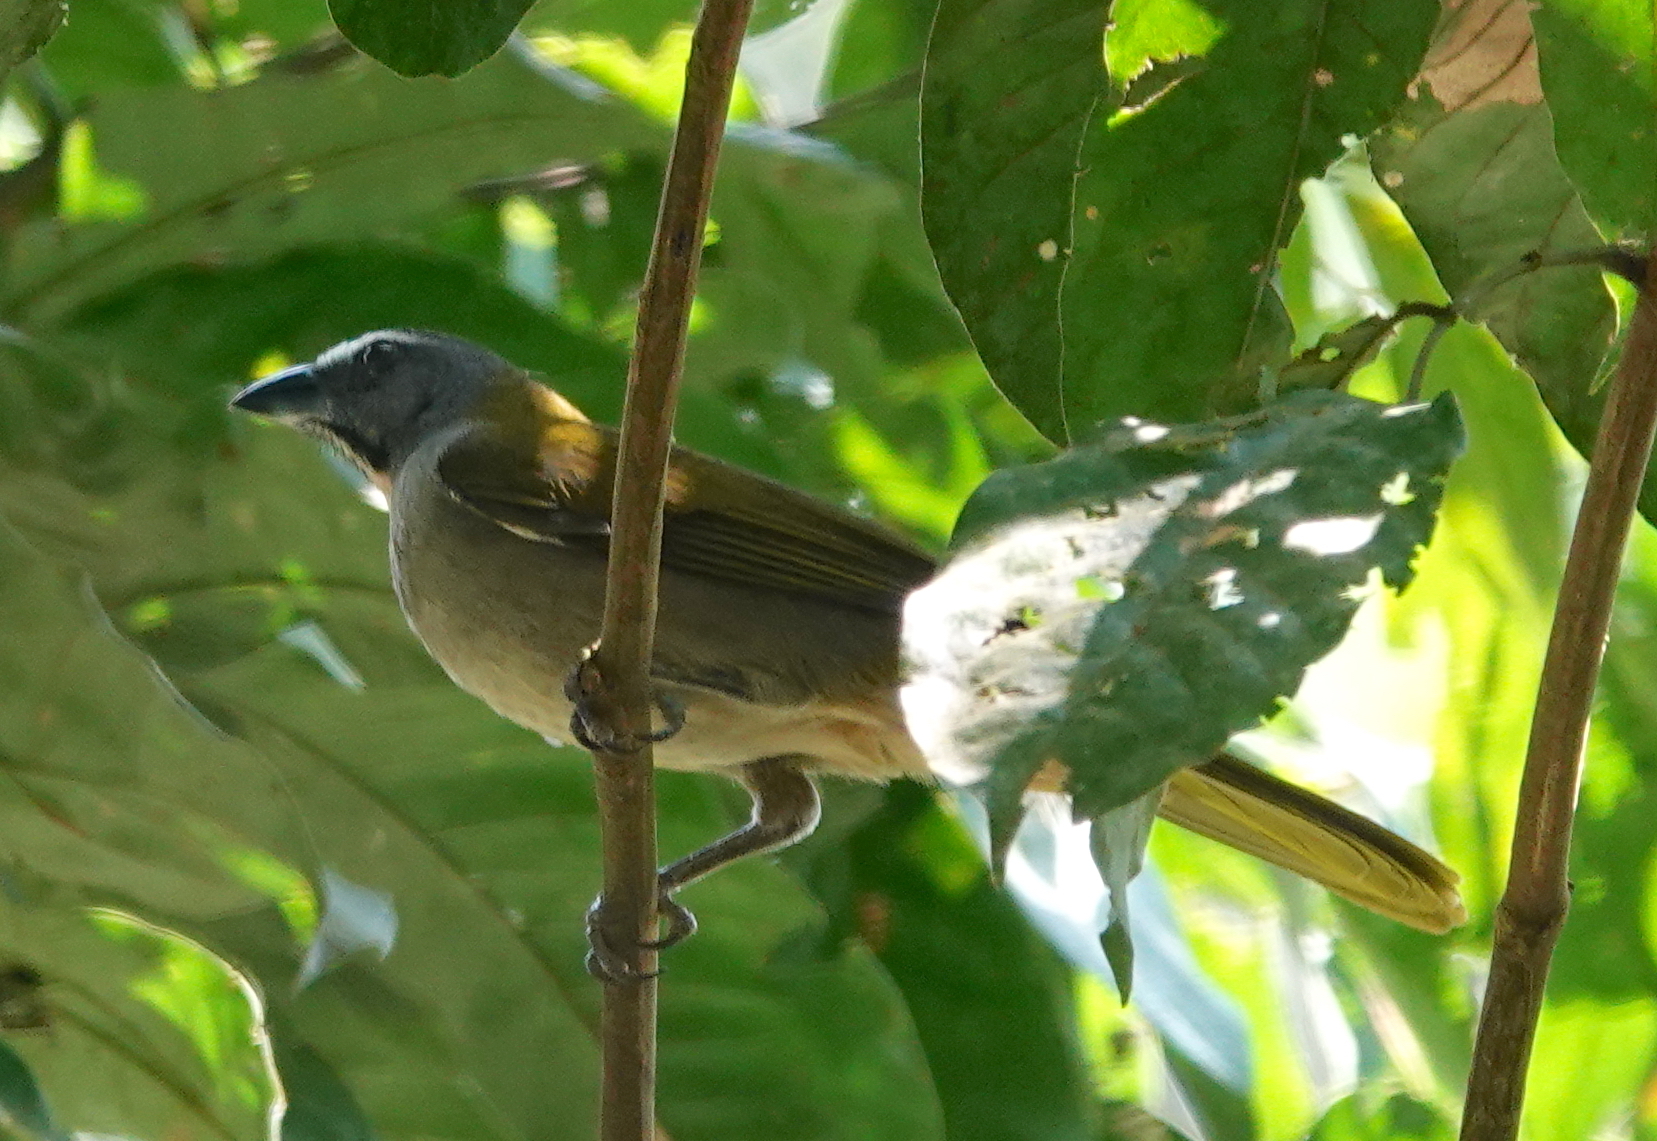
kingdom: Animalia
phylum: Chordata
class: Aves
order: Passeriformes
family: Thraupidae
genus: Saltator
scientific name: Saltator maximus
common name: Buff-throated saltator
